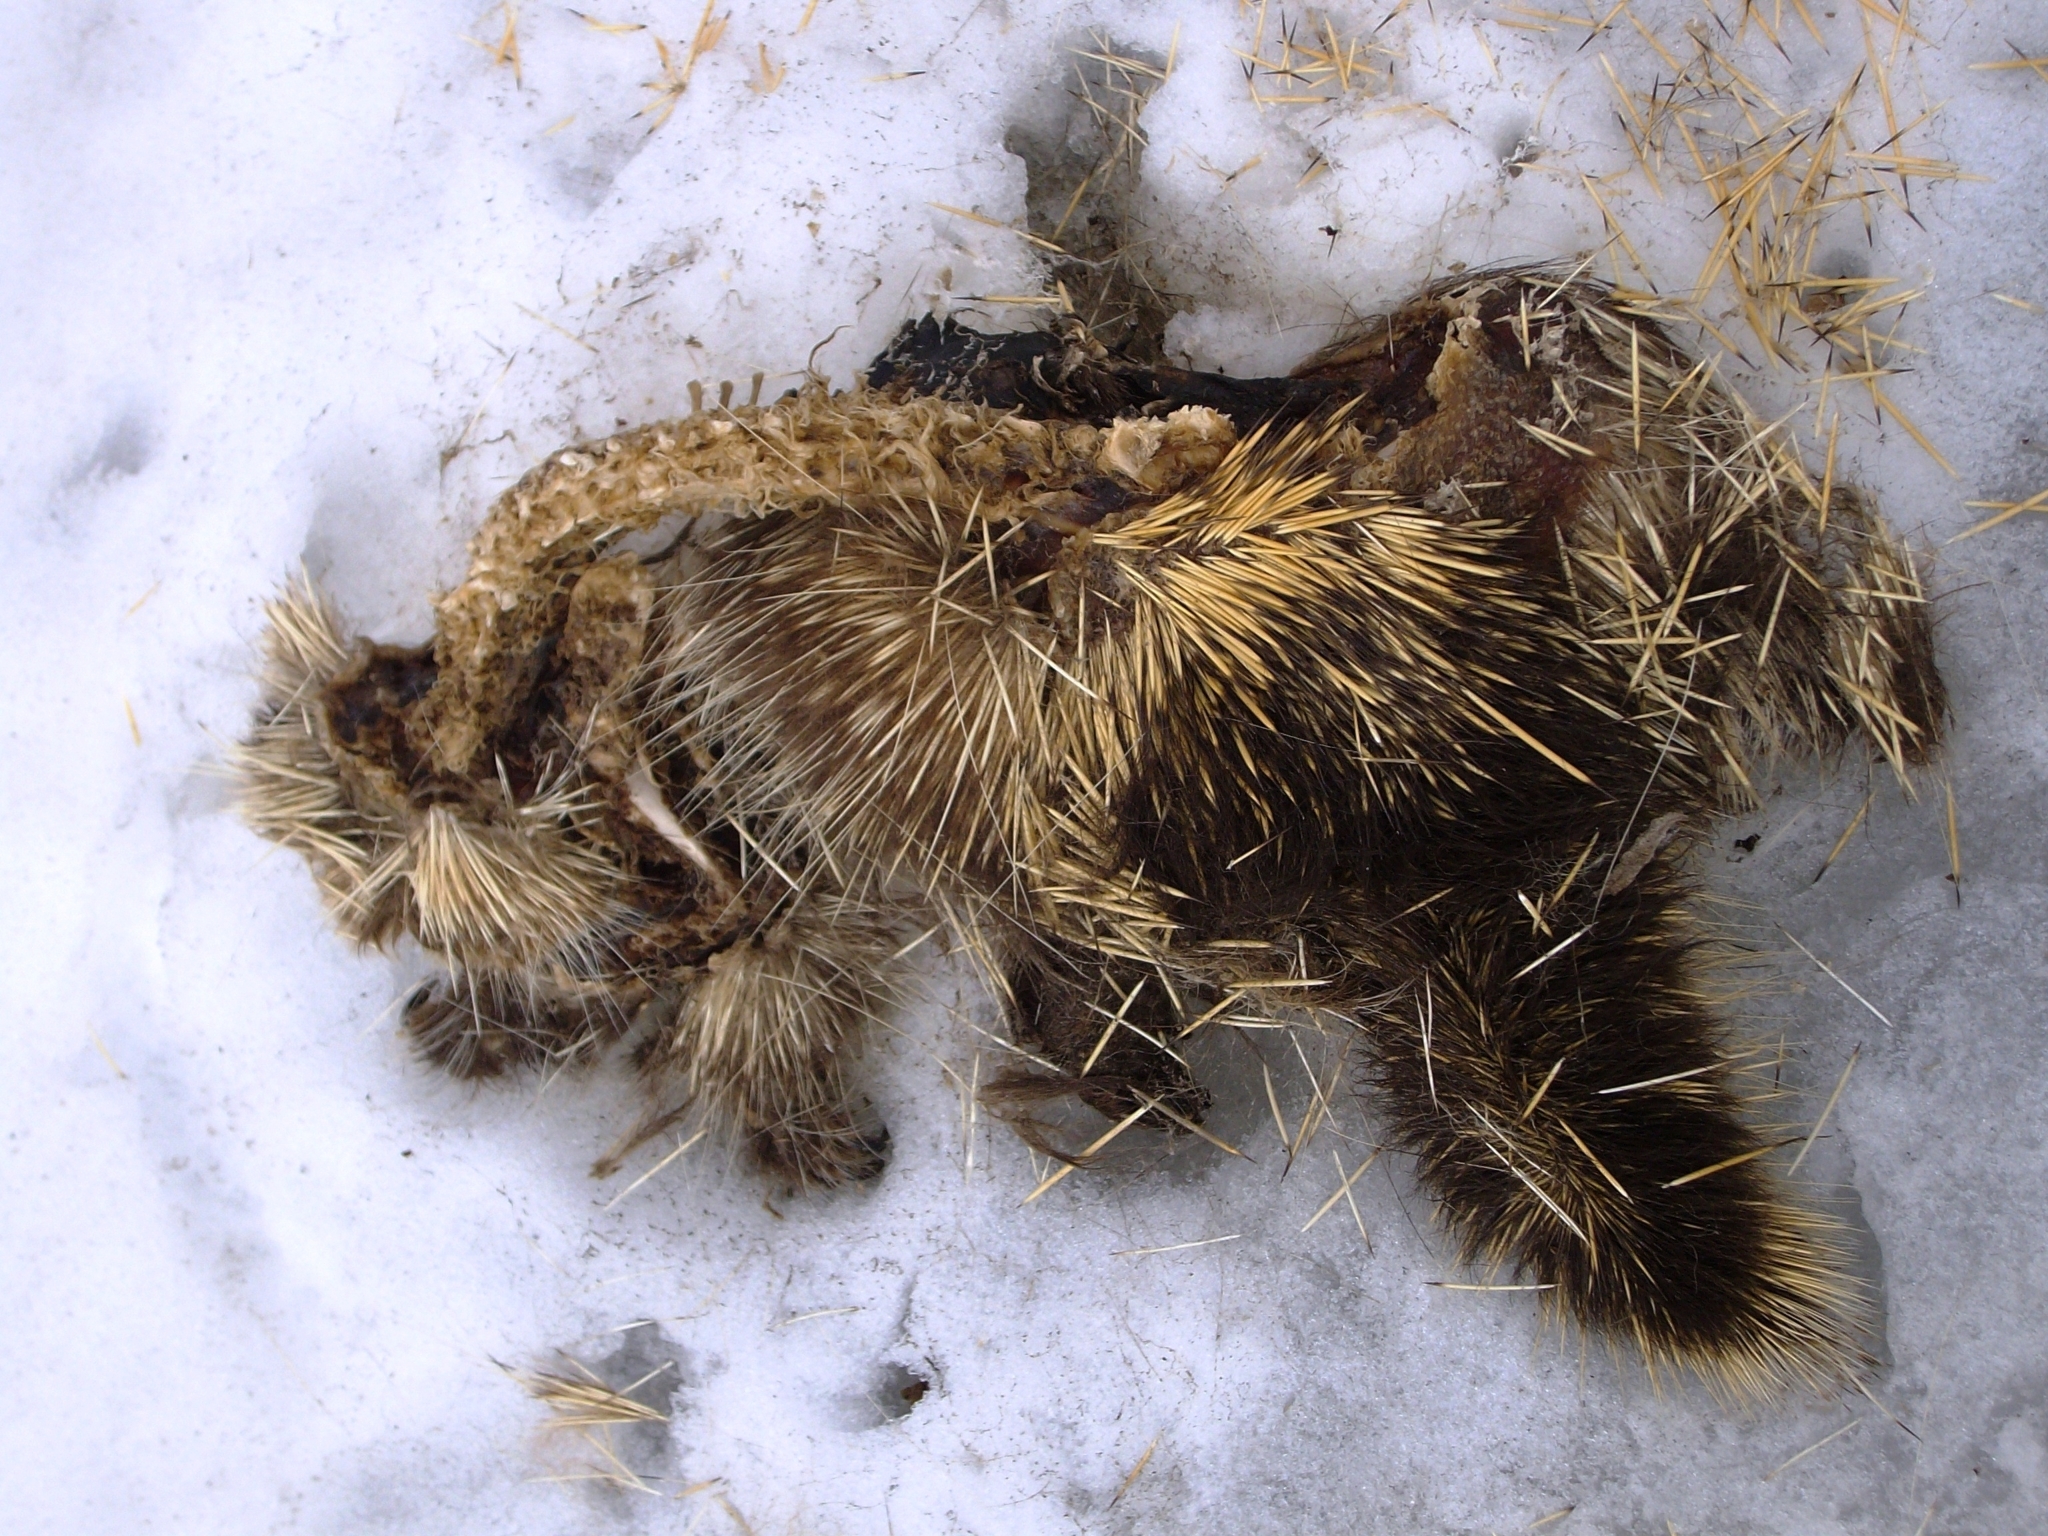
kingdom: Animalia
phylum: Chordata
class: Mammalia
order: Rodentia
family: Erethizontidae
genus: Erethizon
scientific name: Erethizon dorsatus
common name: North american porcupine
